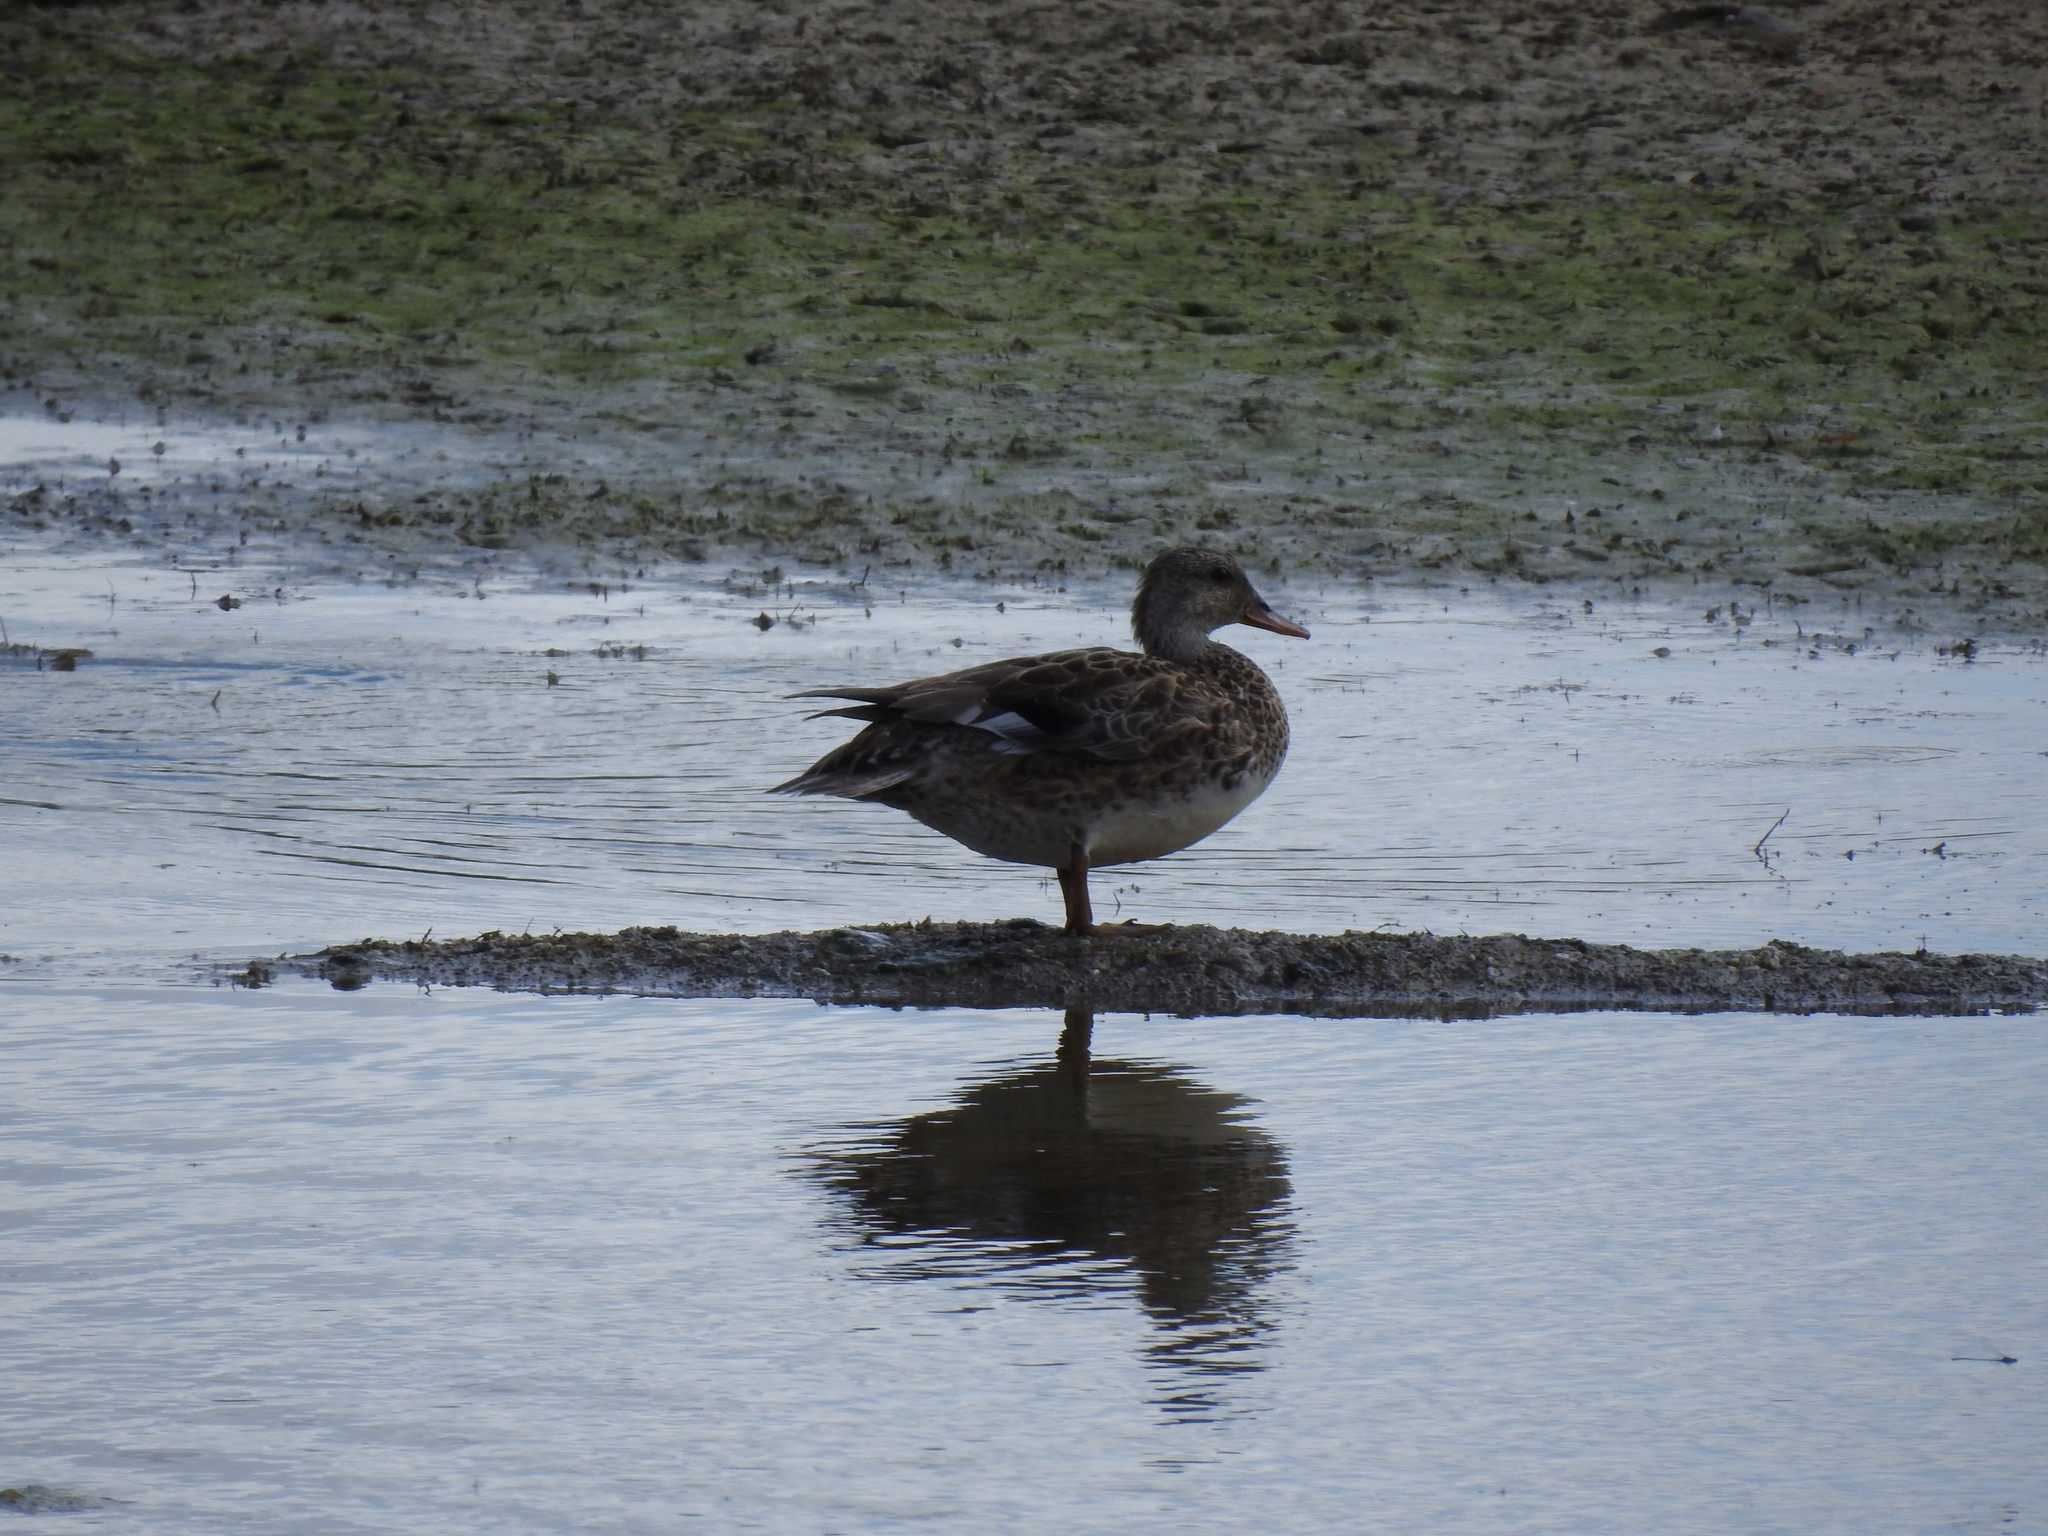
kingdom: Animalia
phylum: Chordata
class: Aves
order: Anseriformes
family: Anatidae
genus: Mareca
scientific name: Mareca strepera
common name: Gadwall
